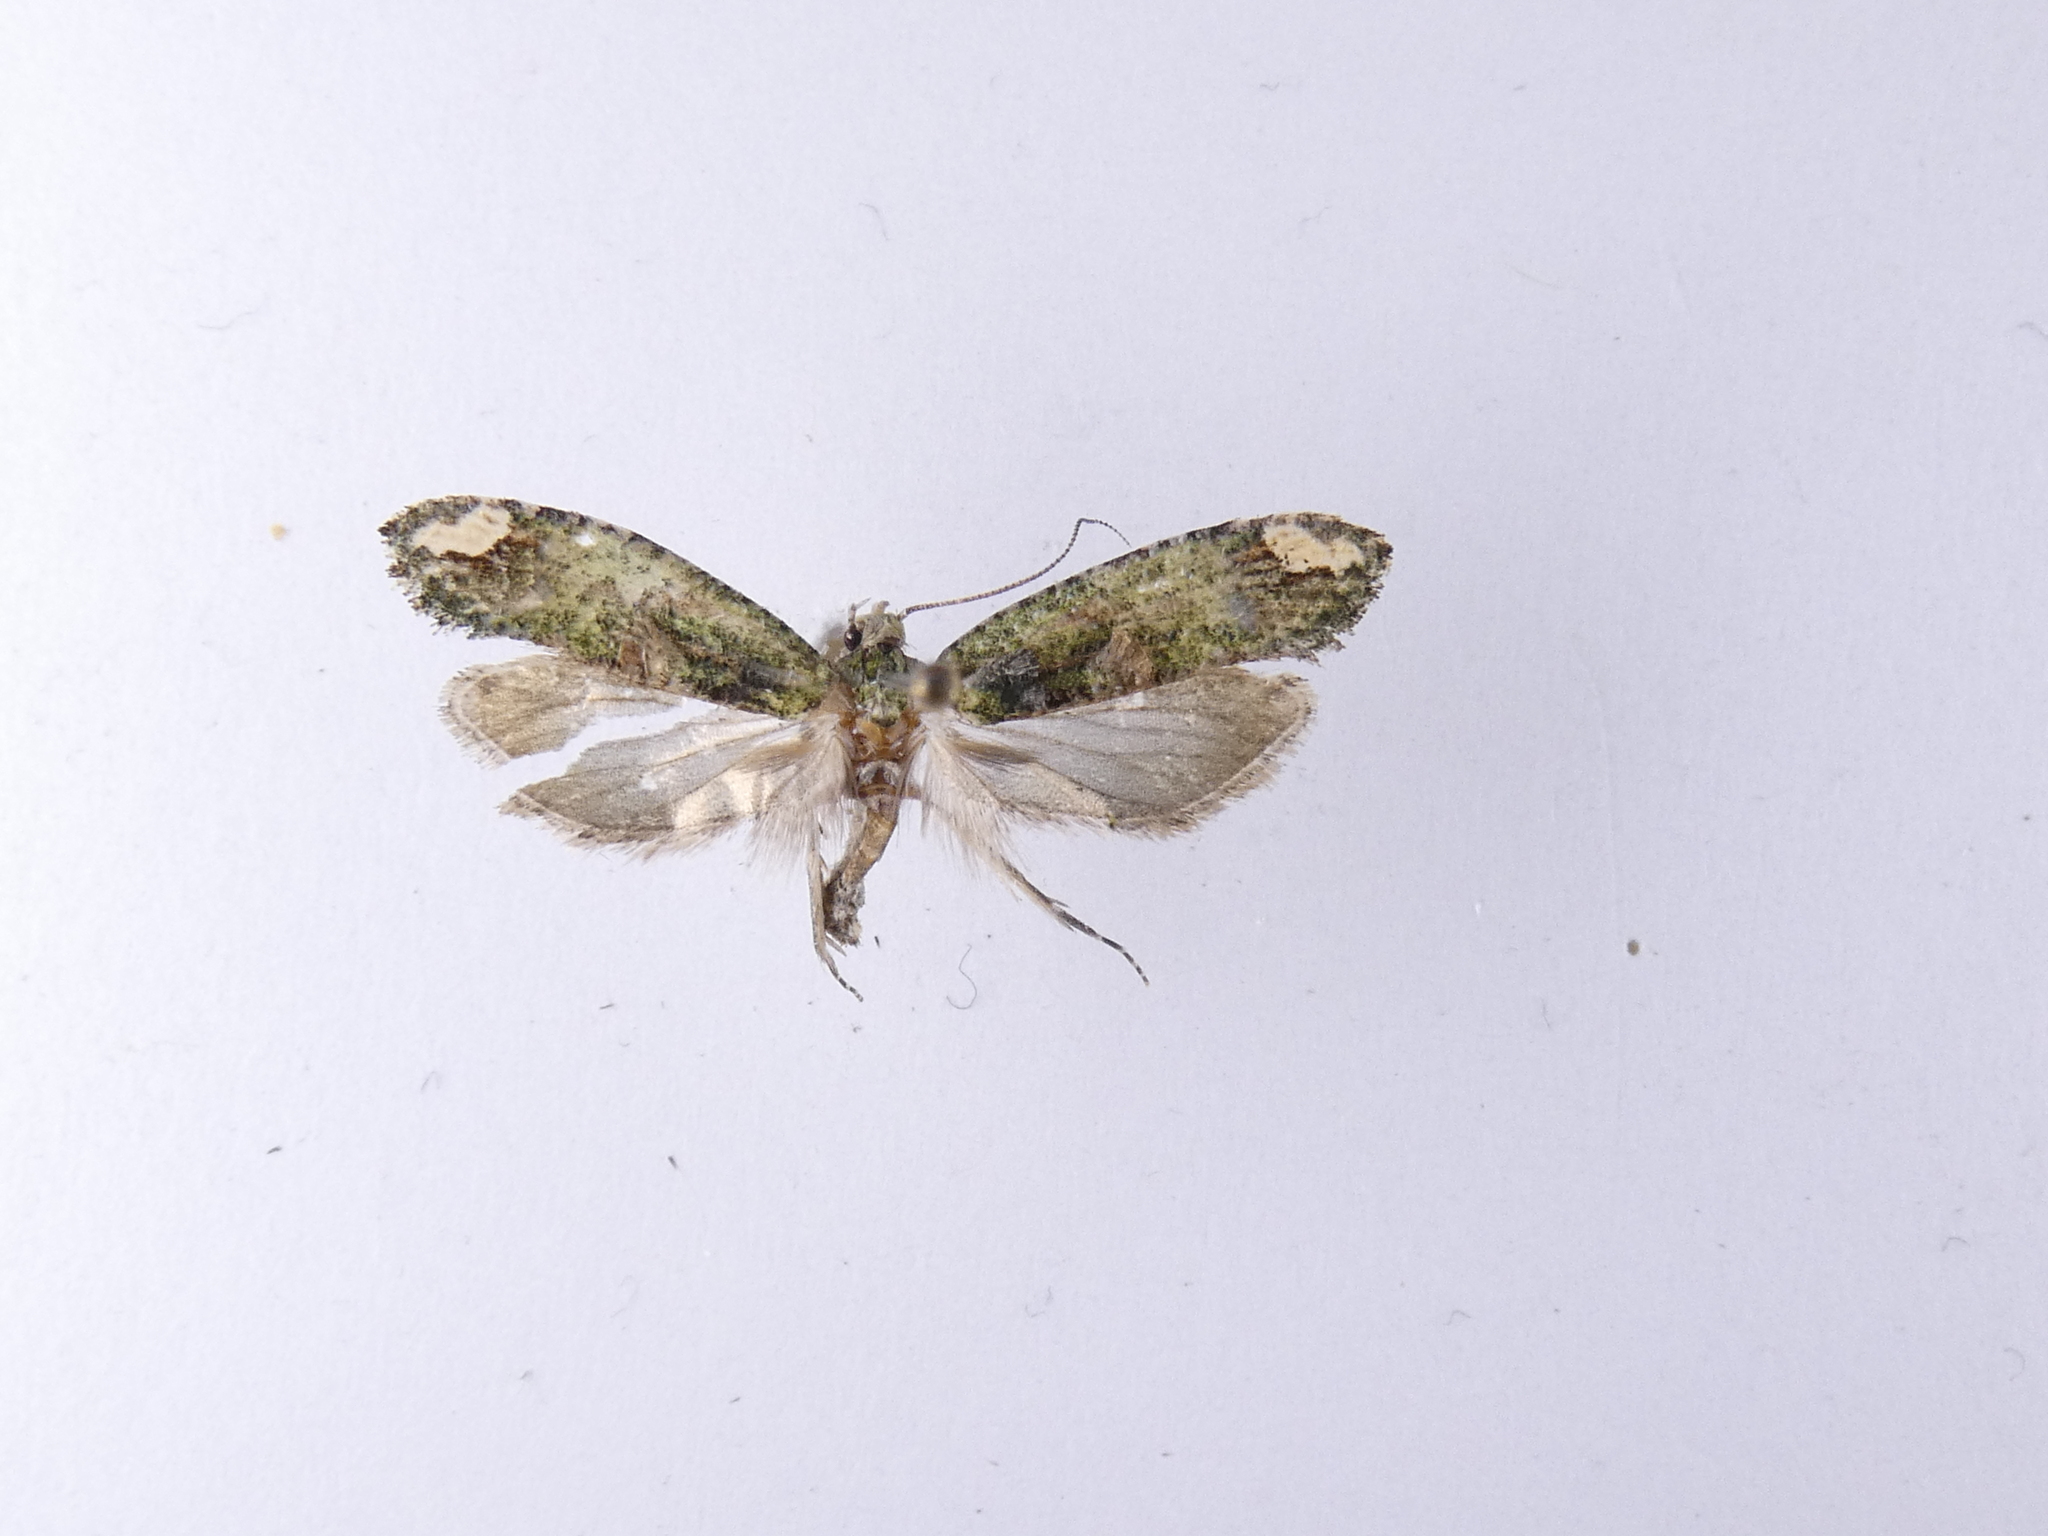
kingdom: Animalia
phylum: Arthropoda
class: Insecta
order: Lepidoptera
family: Tineidae
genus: Lysiphragma
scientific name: Lysiphragma mixochlora
